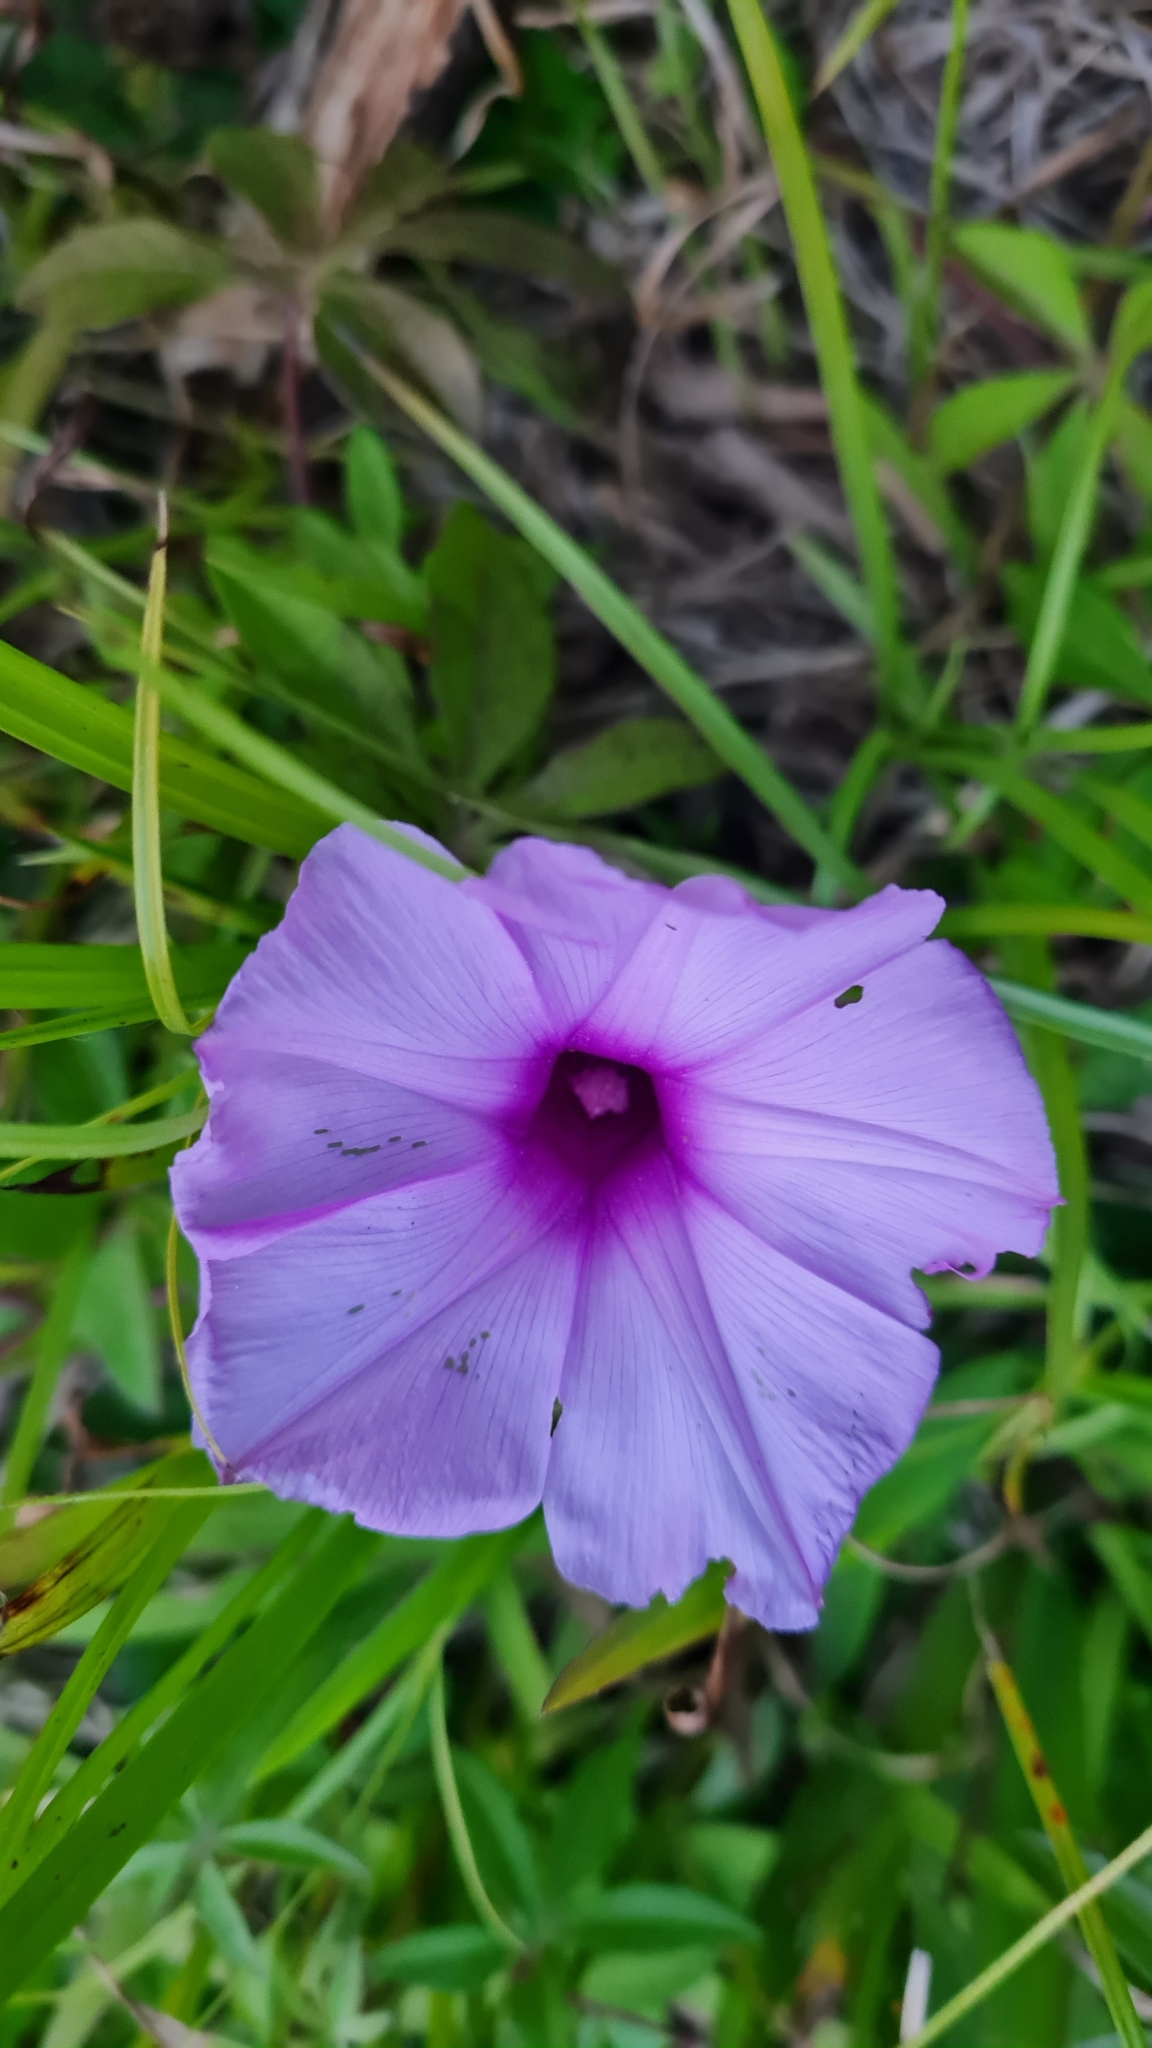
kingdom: Plantae
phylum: Tracheophyta
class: Magnoliopsida
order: Solanales
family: Convolvulaceae
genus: Ipomoea
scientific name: Ipomoea cairica
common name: Mile a minute vine
